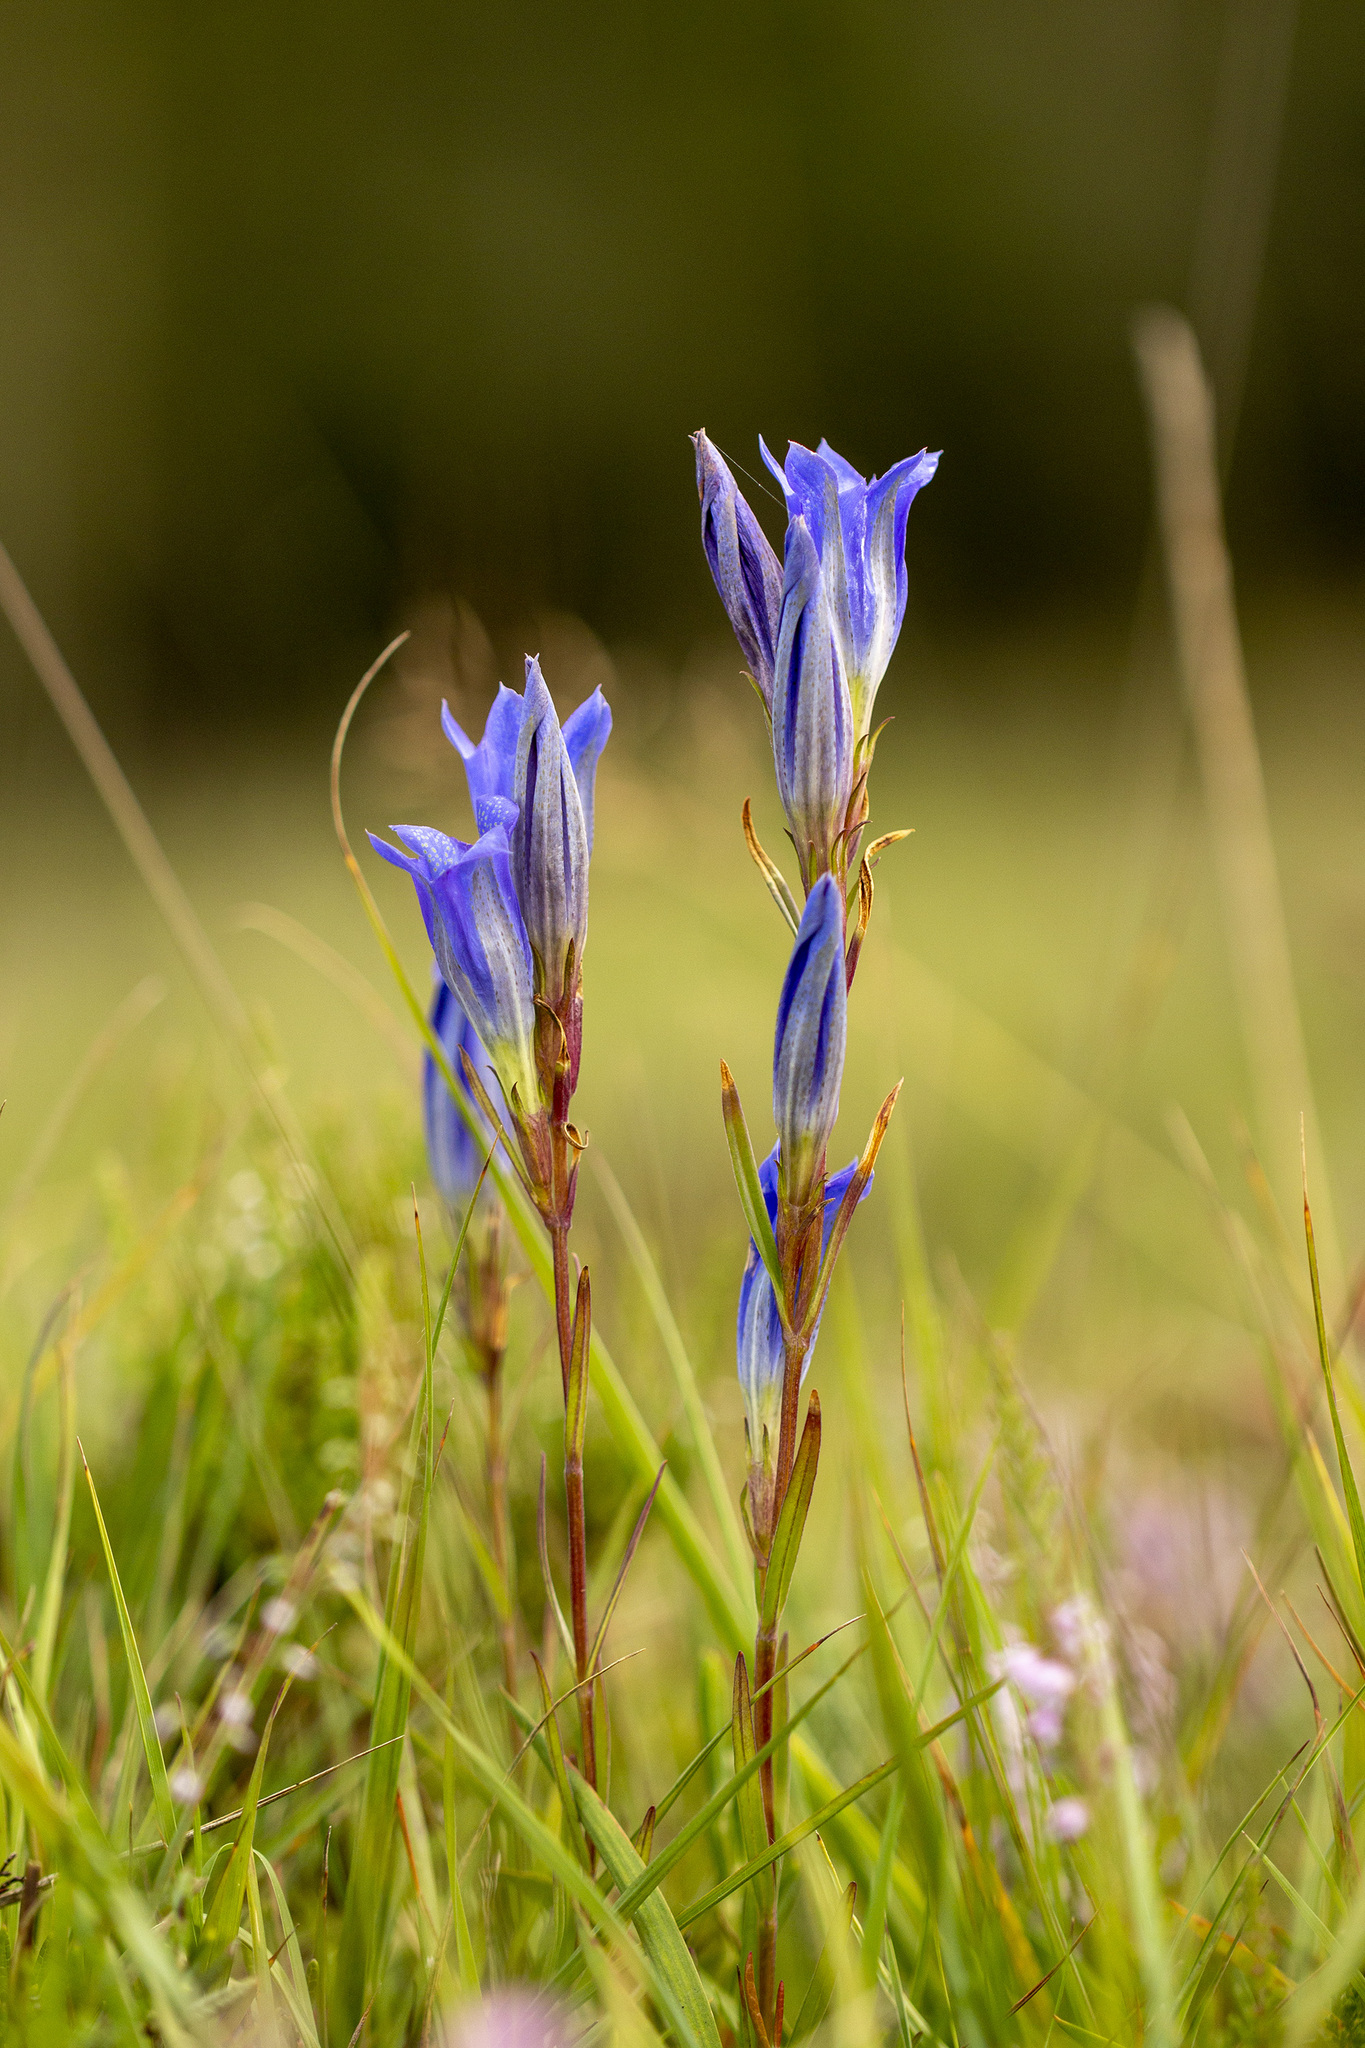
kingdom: Plantae
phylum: Tracheophyta
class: Magnoliopsida
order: Gentianales
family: Gentianaceae
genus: Gentiana
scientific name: Gentiana pneumonanthe
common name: Marsh gentian
